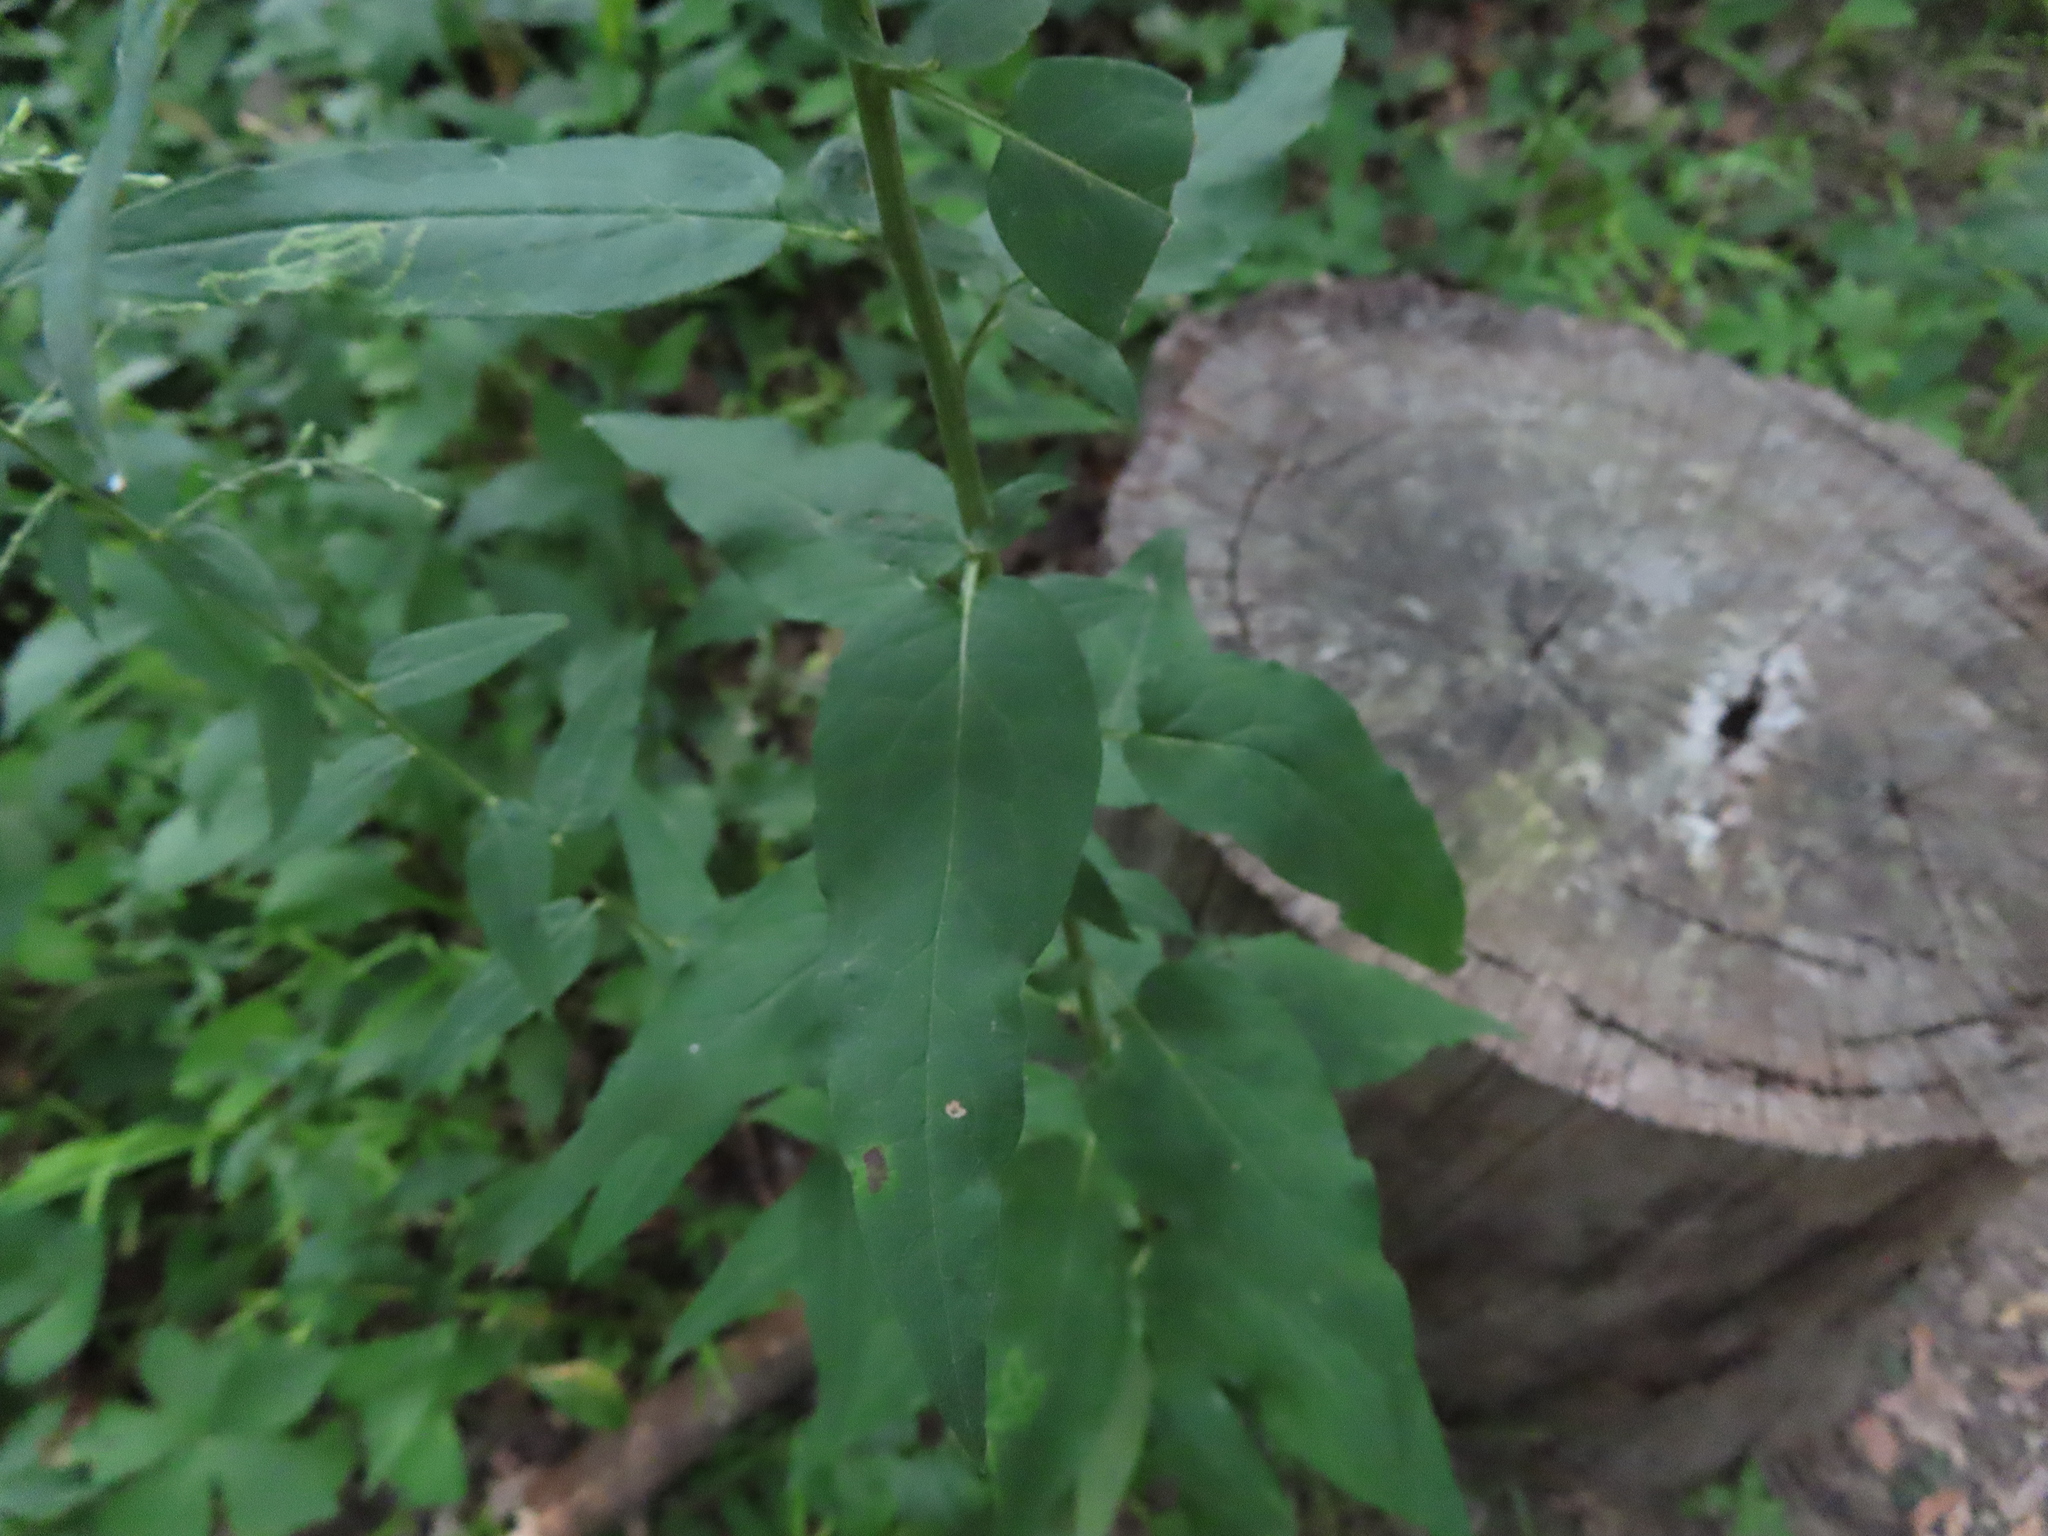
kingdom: Plantae
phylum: Tracheophyta
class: Magnoliopsida
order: Asterales
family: Asteraceae
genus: Symphyotrichum
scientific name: Symphyotrichum shortii
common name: Short's aster
